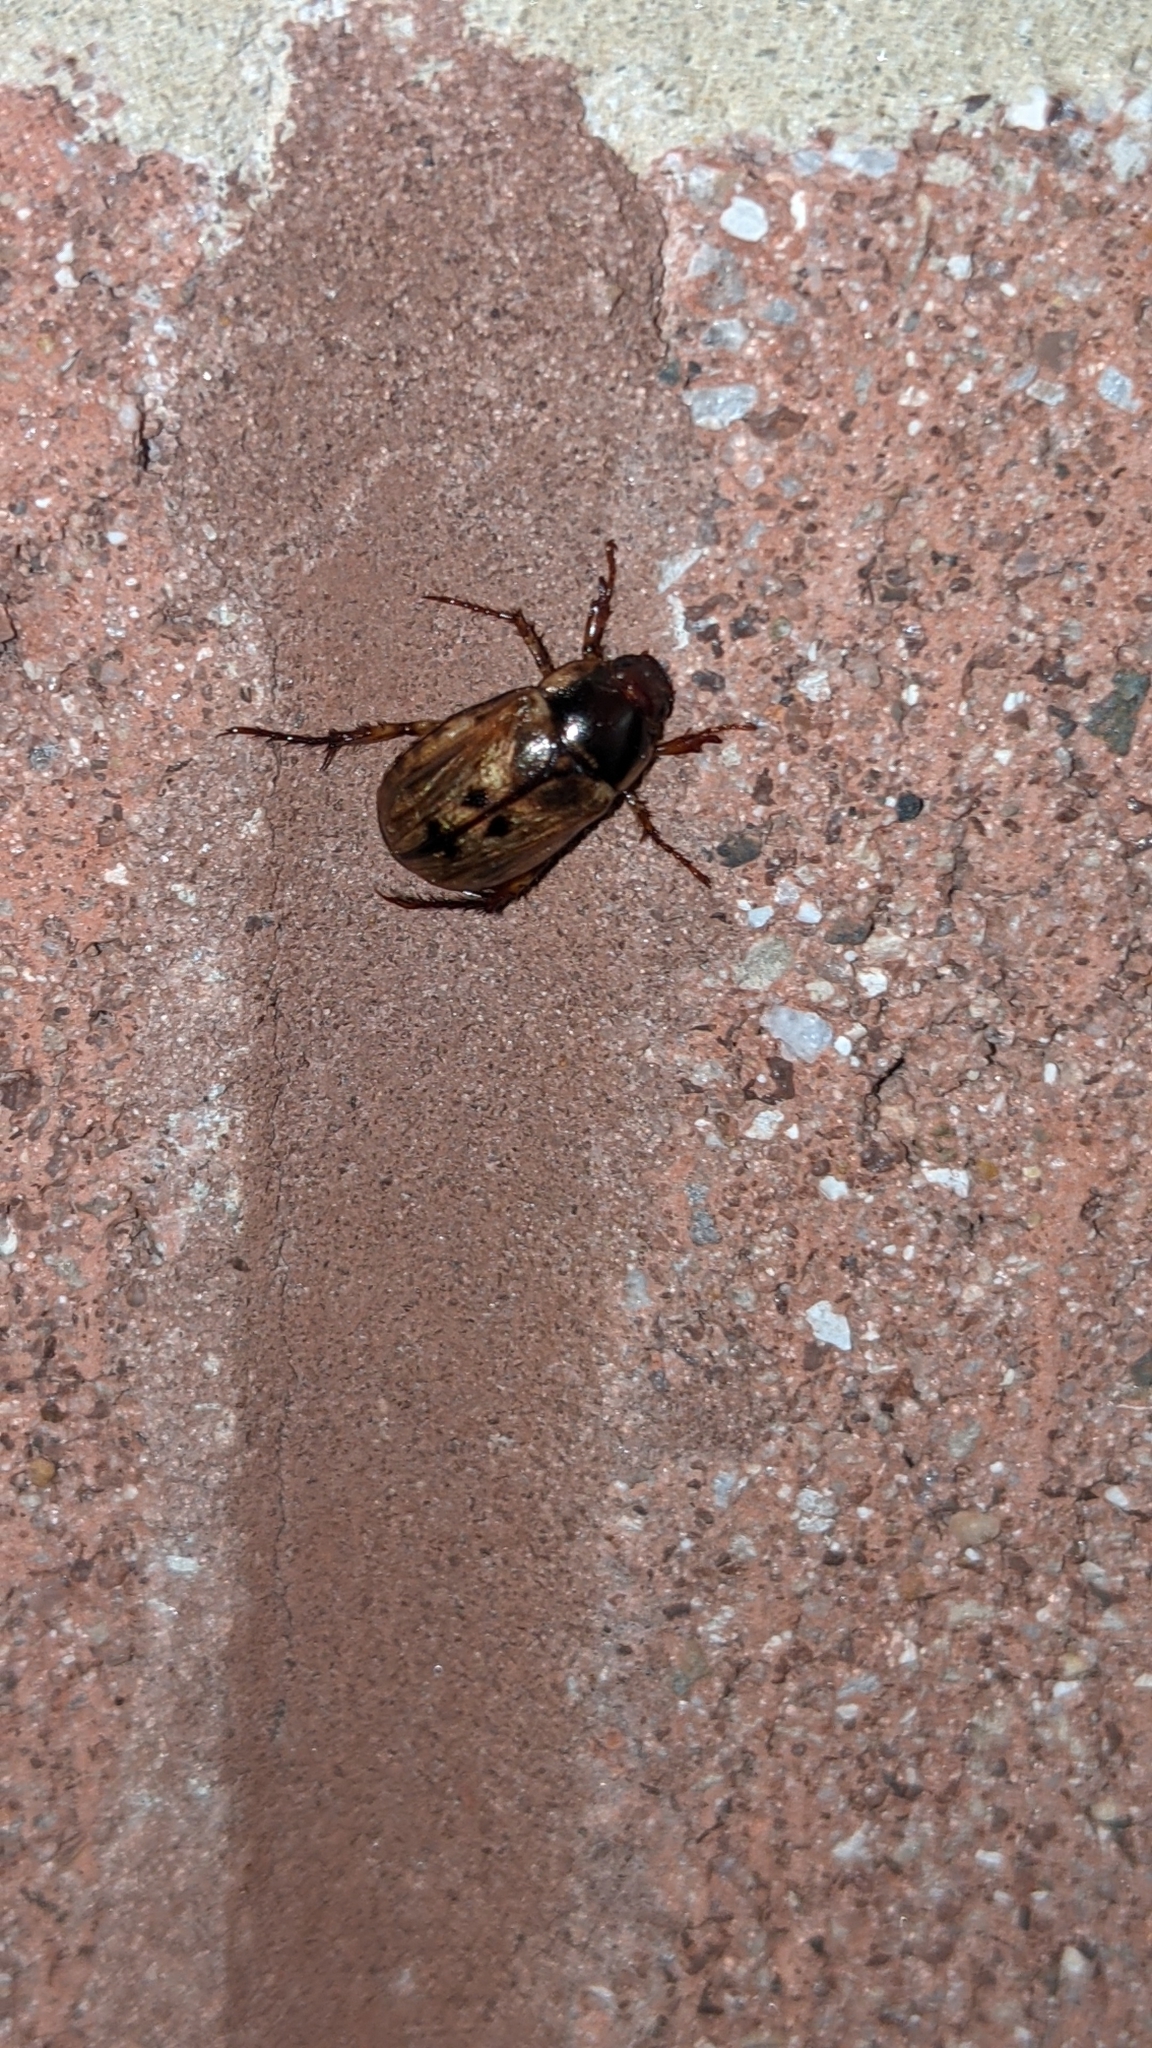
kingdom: Animalia
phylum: Arthropoda
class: Insecta
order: Coleoptera
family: Scarabaeidae
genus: Paranomala
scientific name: Paranomala undulata
